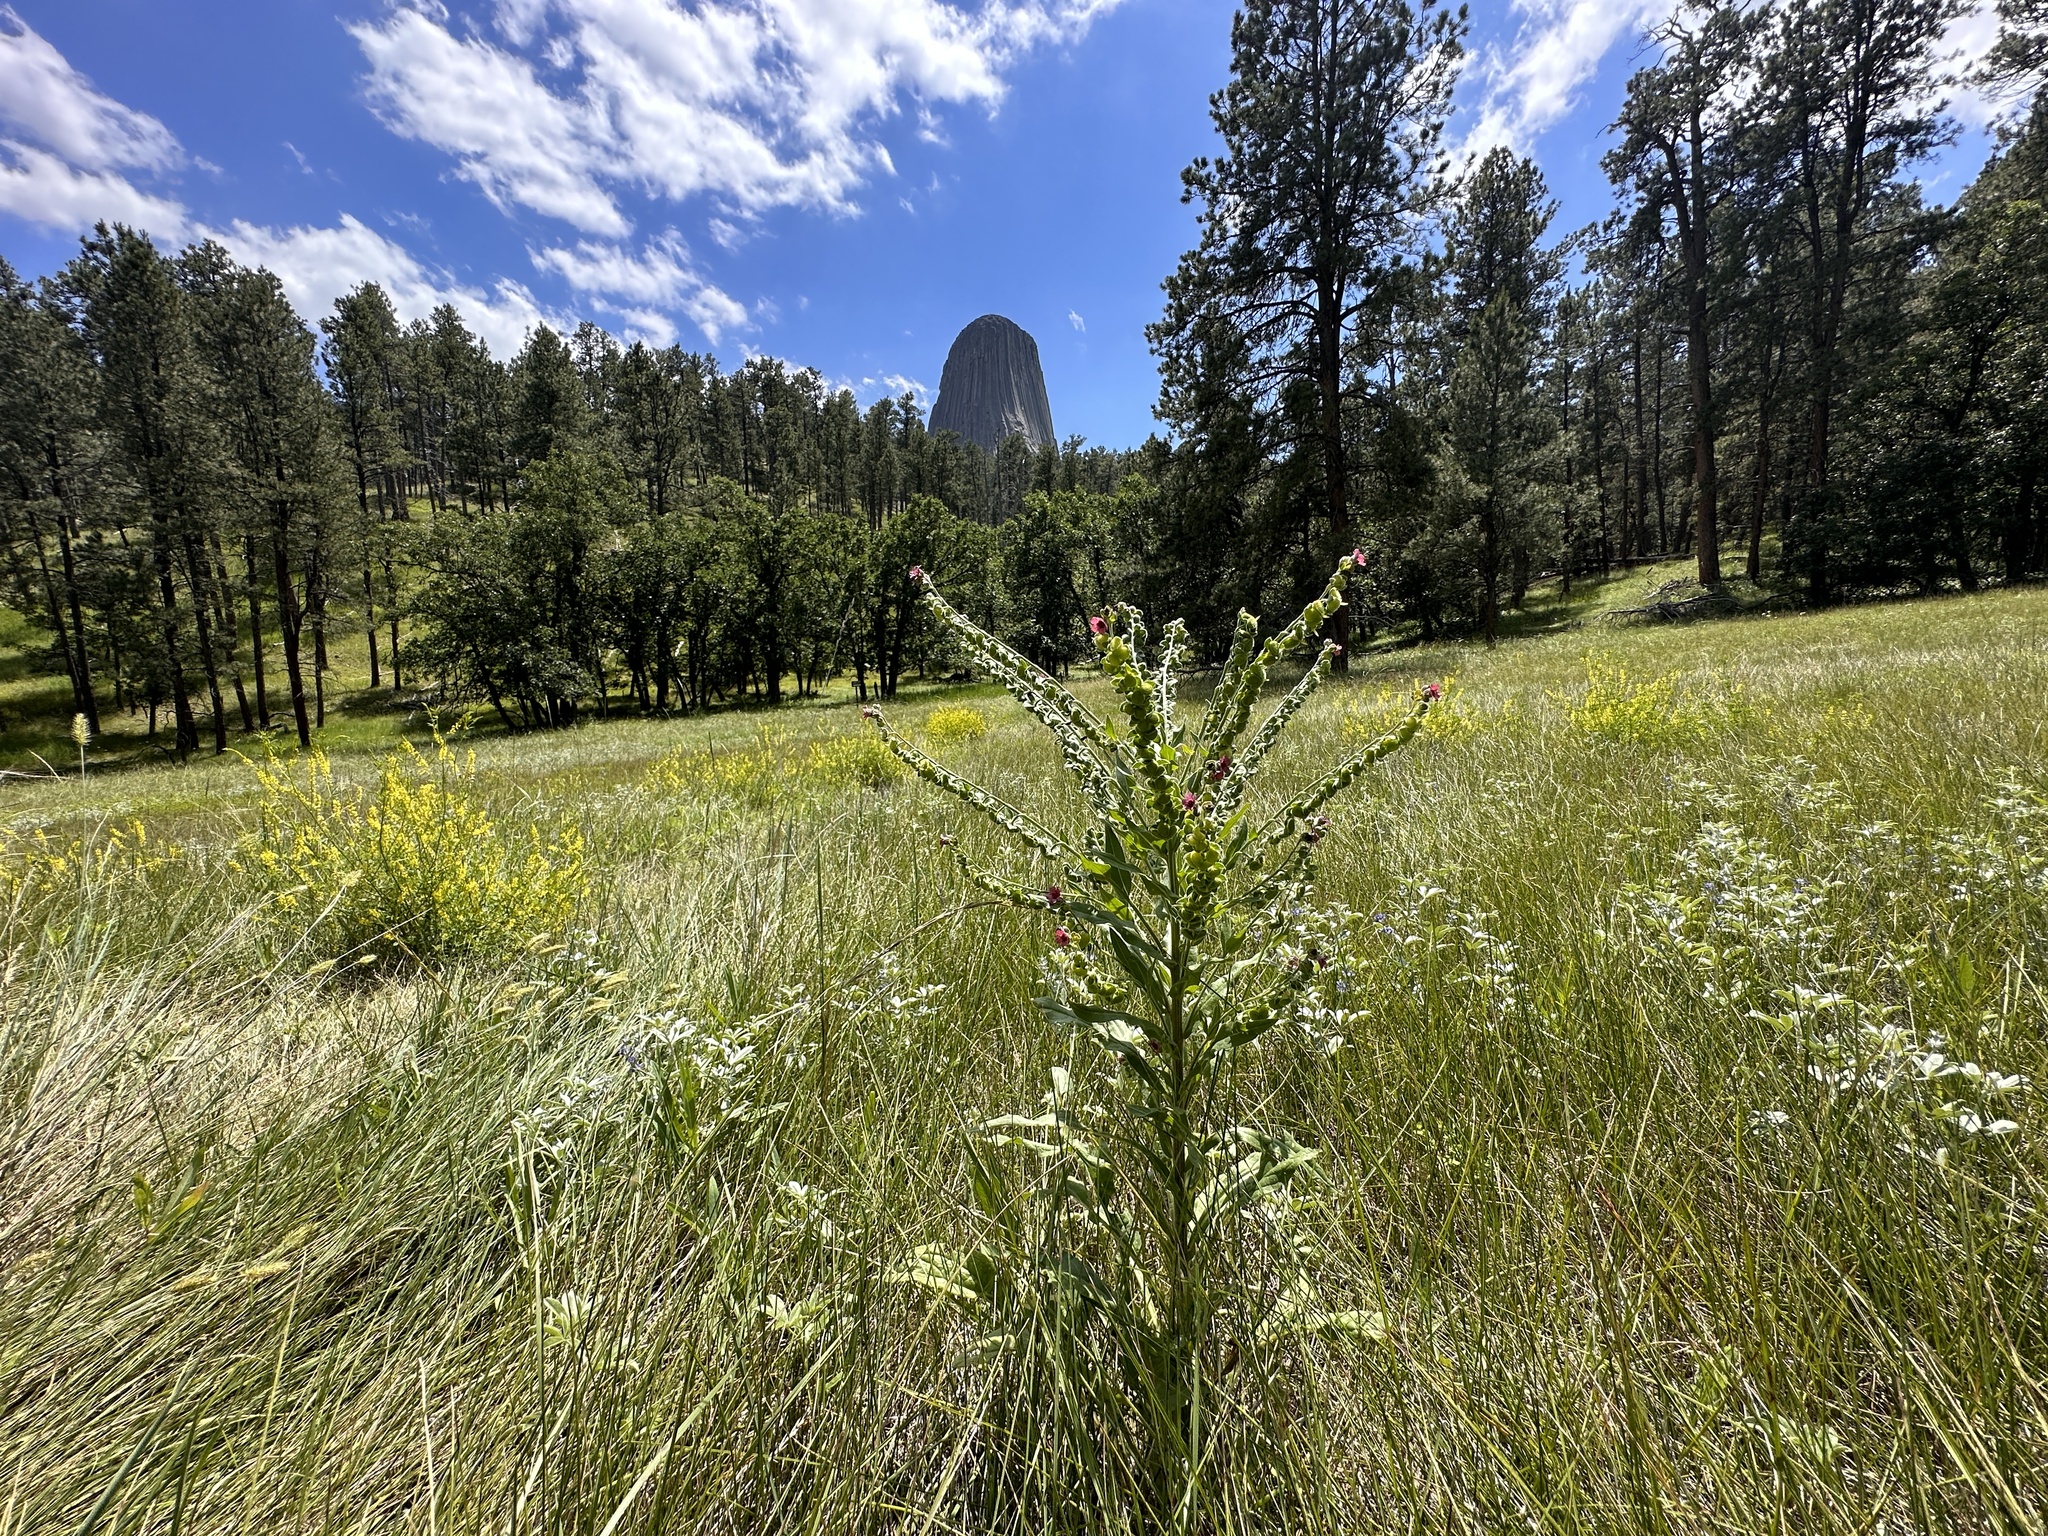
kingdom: Plantae
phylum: Tracheophyta
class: Magnoliopsida
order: Boraginales
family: Boraginaceae
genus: Cynoglossum
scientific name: Cynoglossum officinale
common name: Hound's-tongue
